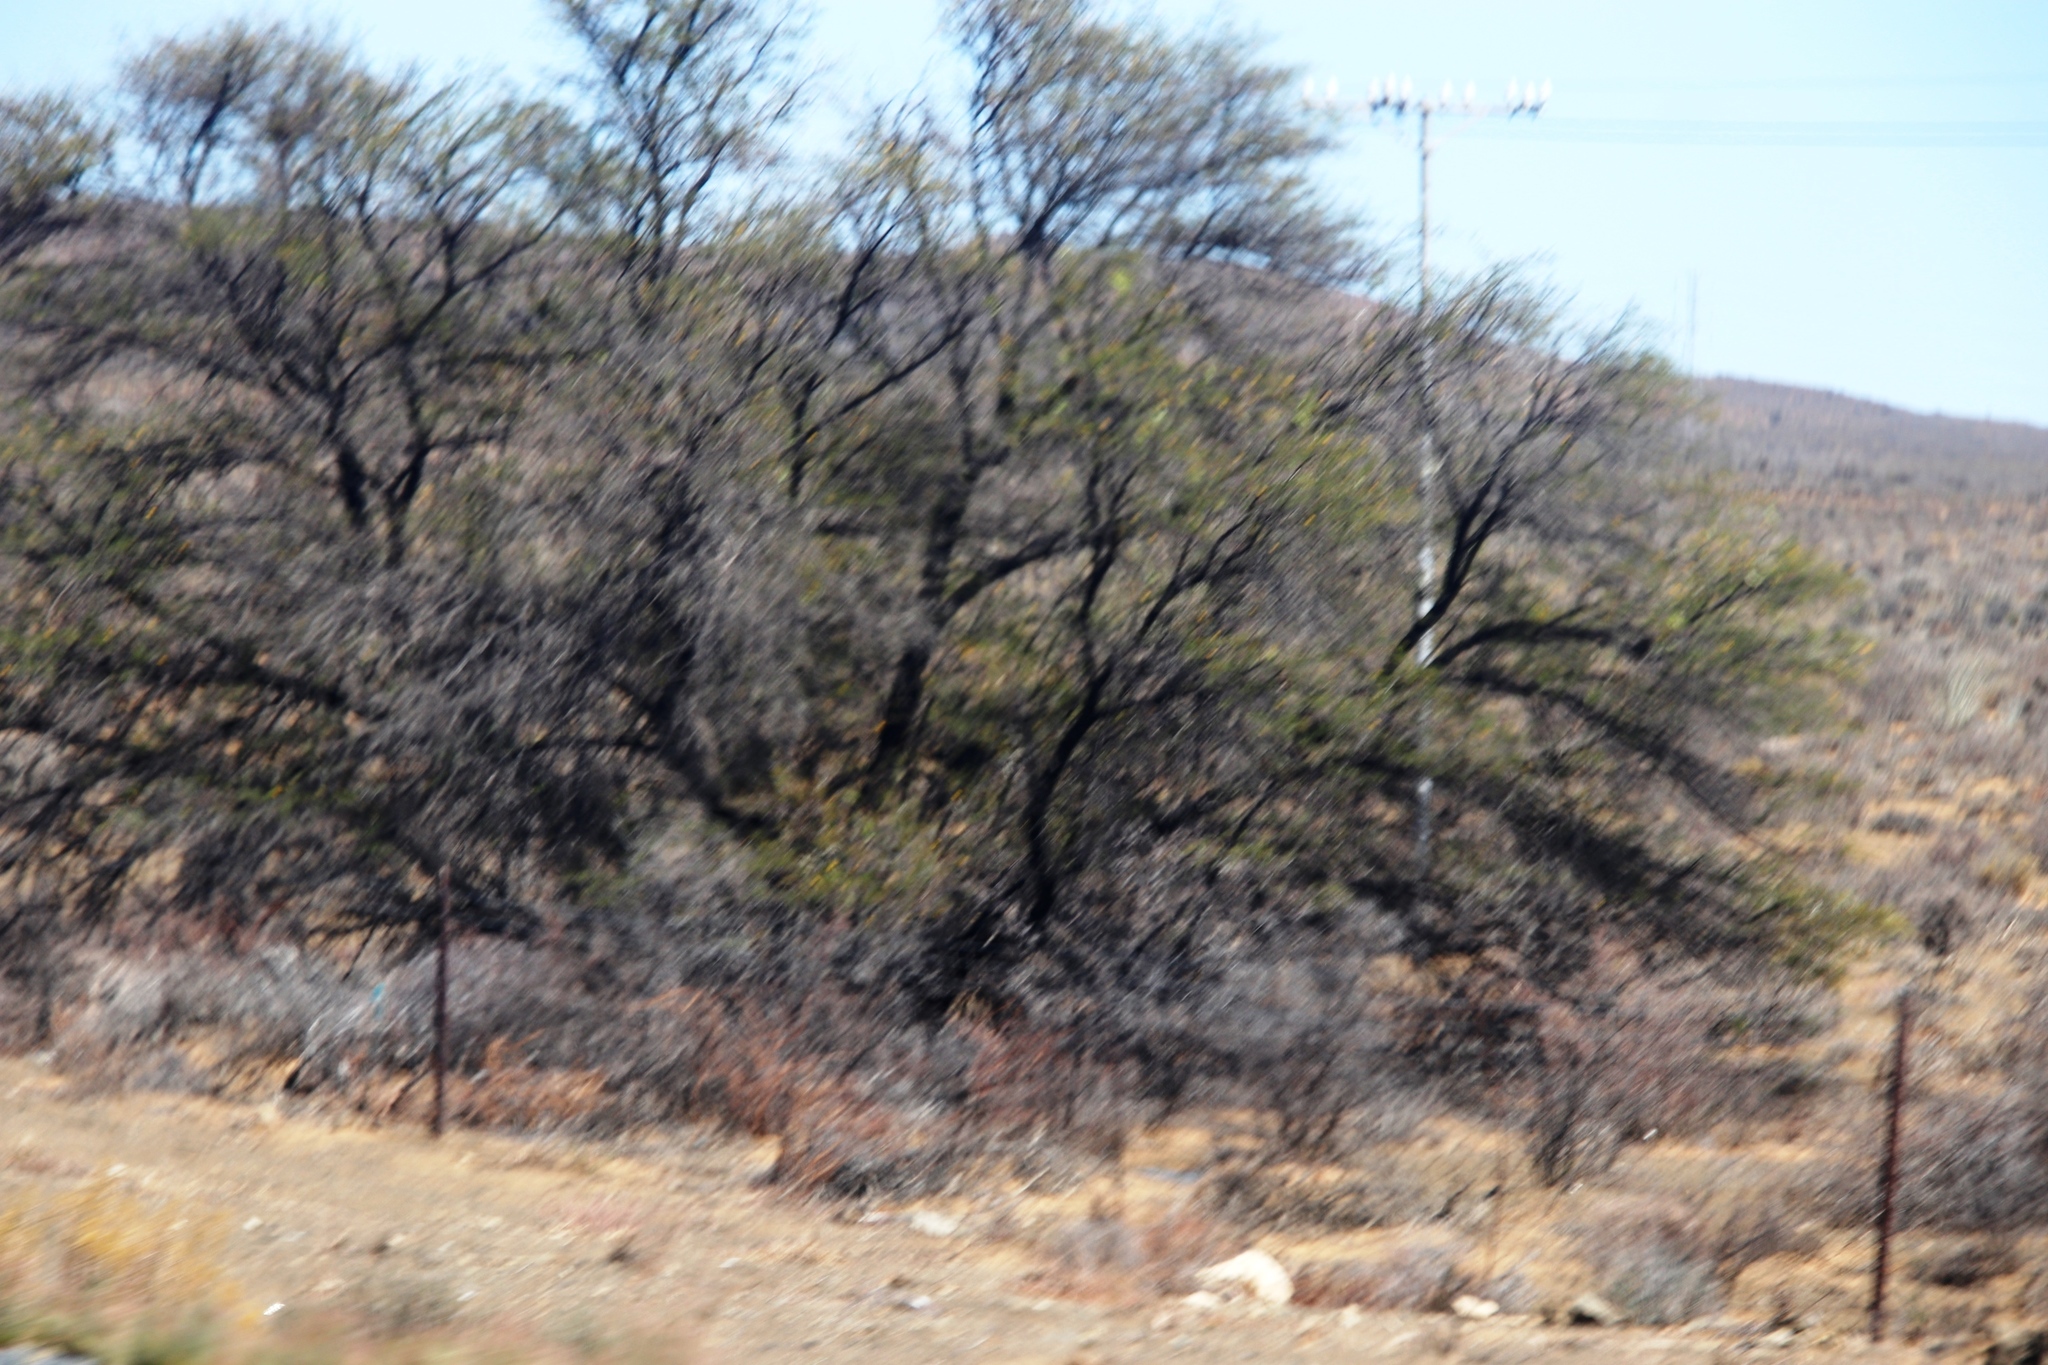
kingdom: Plantae
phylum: Tracheophyta
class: Magnoliopsida
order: Fabales
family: Fabaceae
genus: Vachellia
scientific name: Vachellia karroo
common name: Sweet thorn
